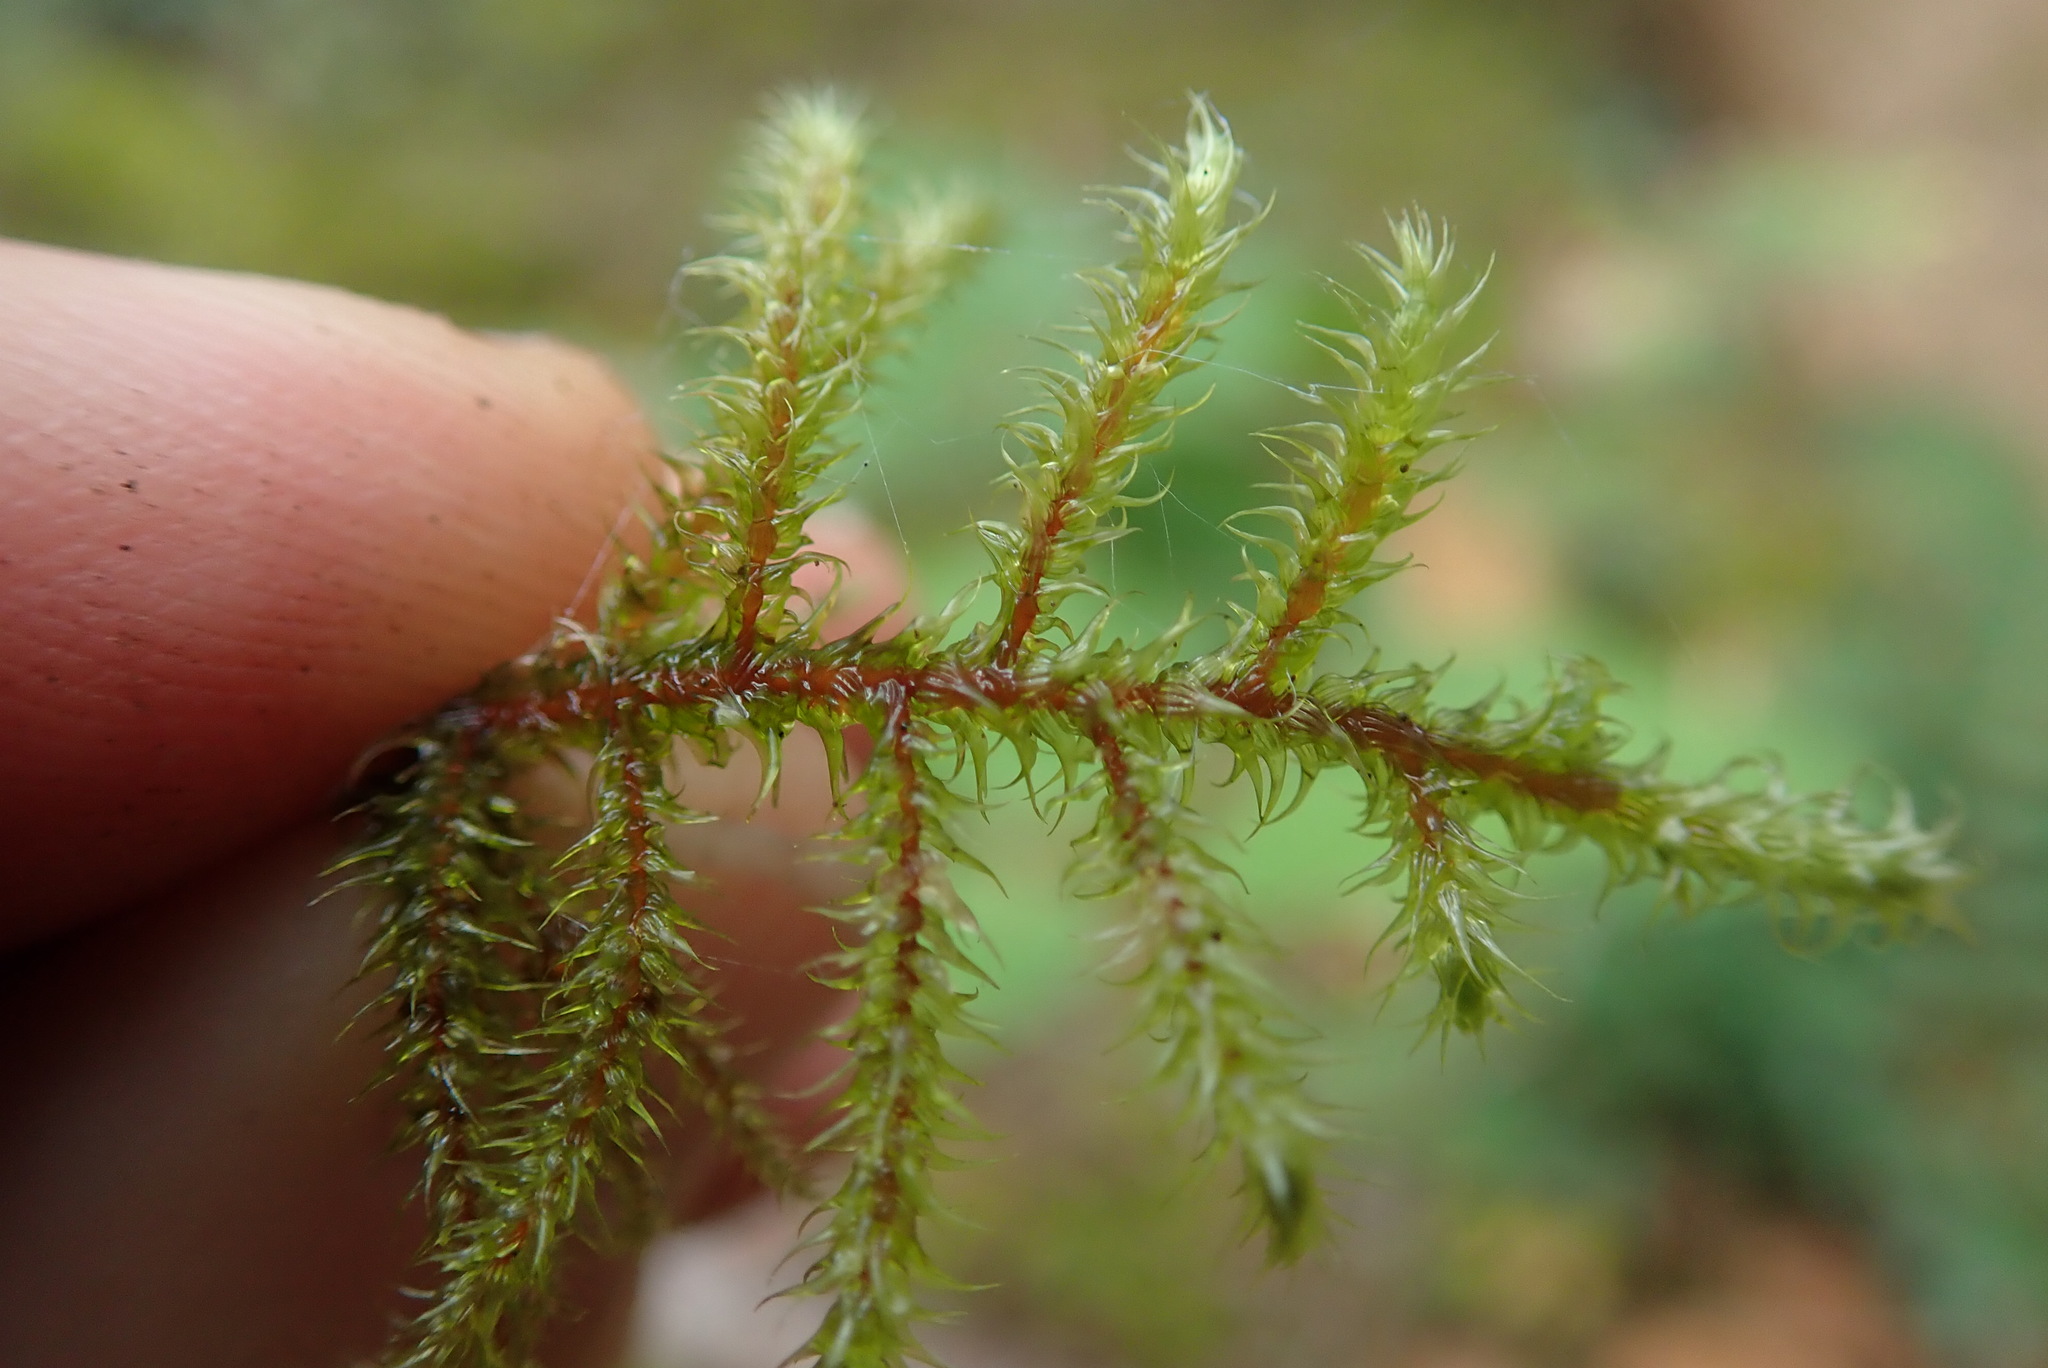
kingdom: Plantae
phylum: Bryophyta
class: Bryopsida
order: Hypnales
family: Hylocomiaceae
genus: Rhytidiadelphus
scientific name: Rhytidiadelphus loreus
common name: Lanky moss
